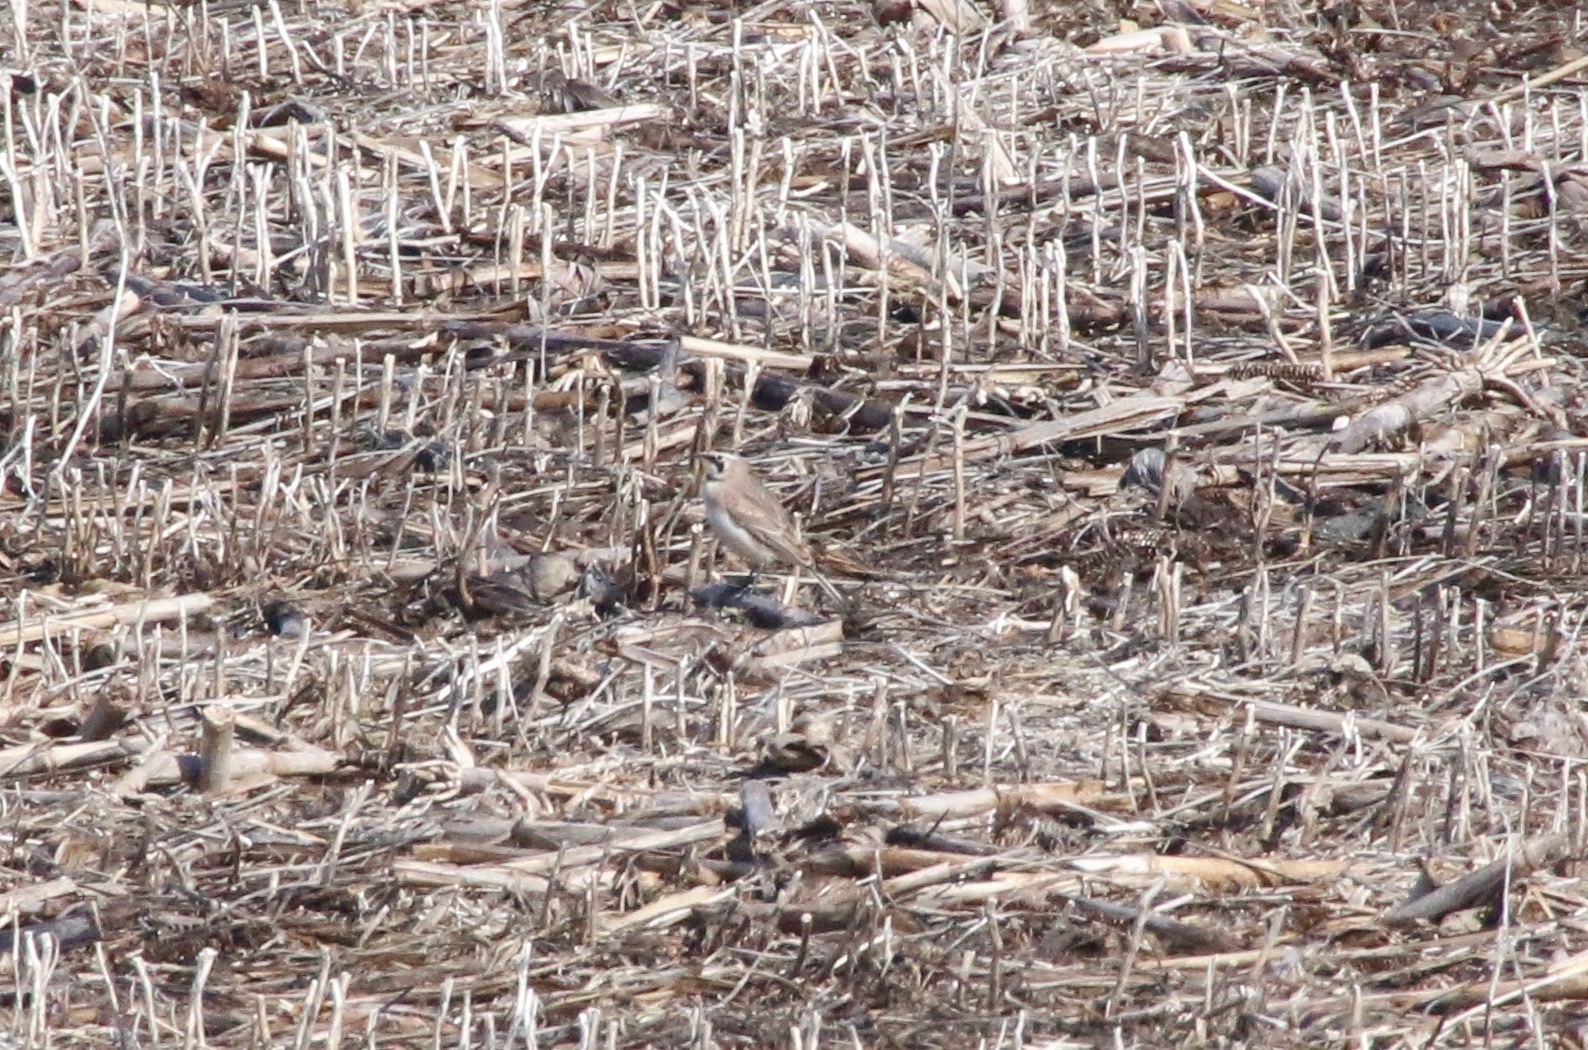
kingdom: Animalia
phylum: Chordata
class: Aves
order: Passeriformes
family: Alaudidae
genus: Eremophila
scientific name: Eremophila alpestris
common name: Horned lark
